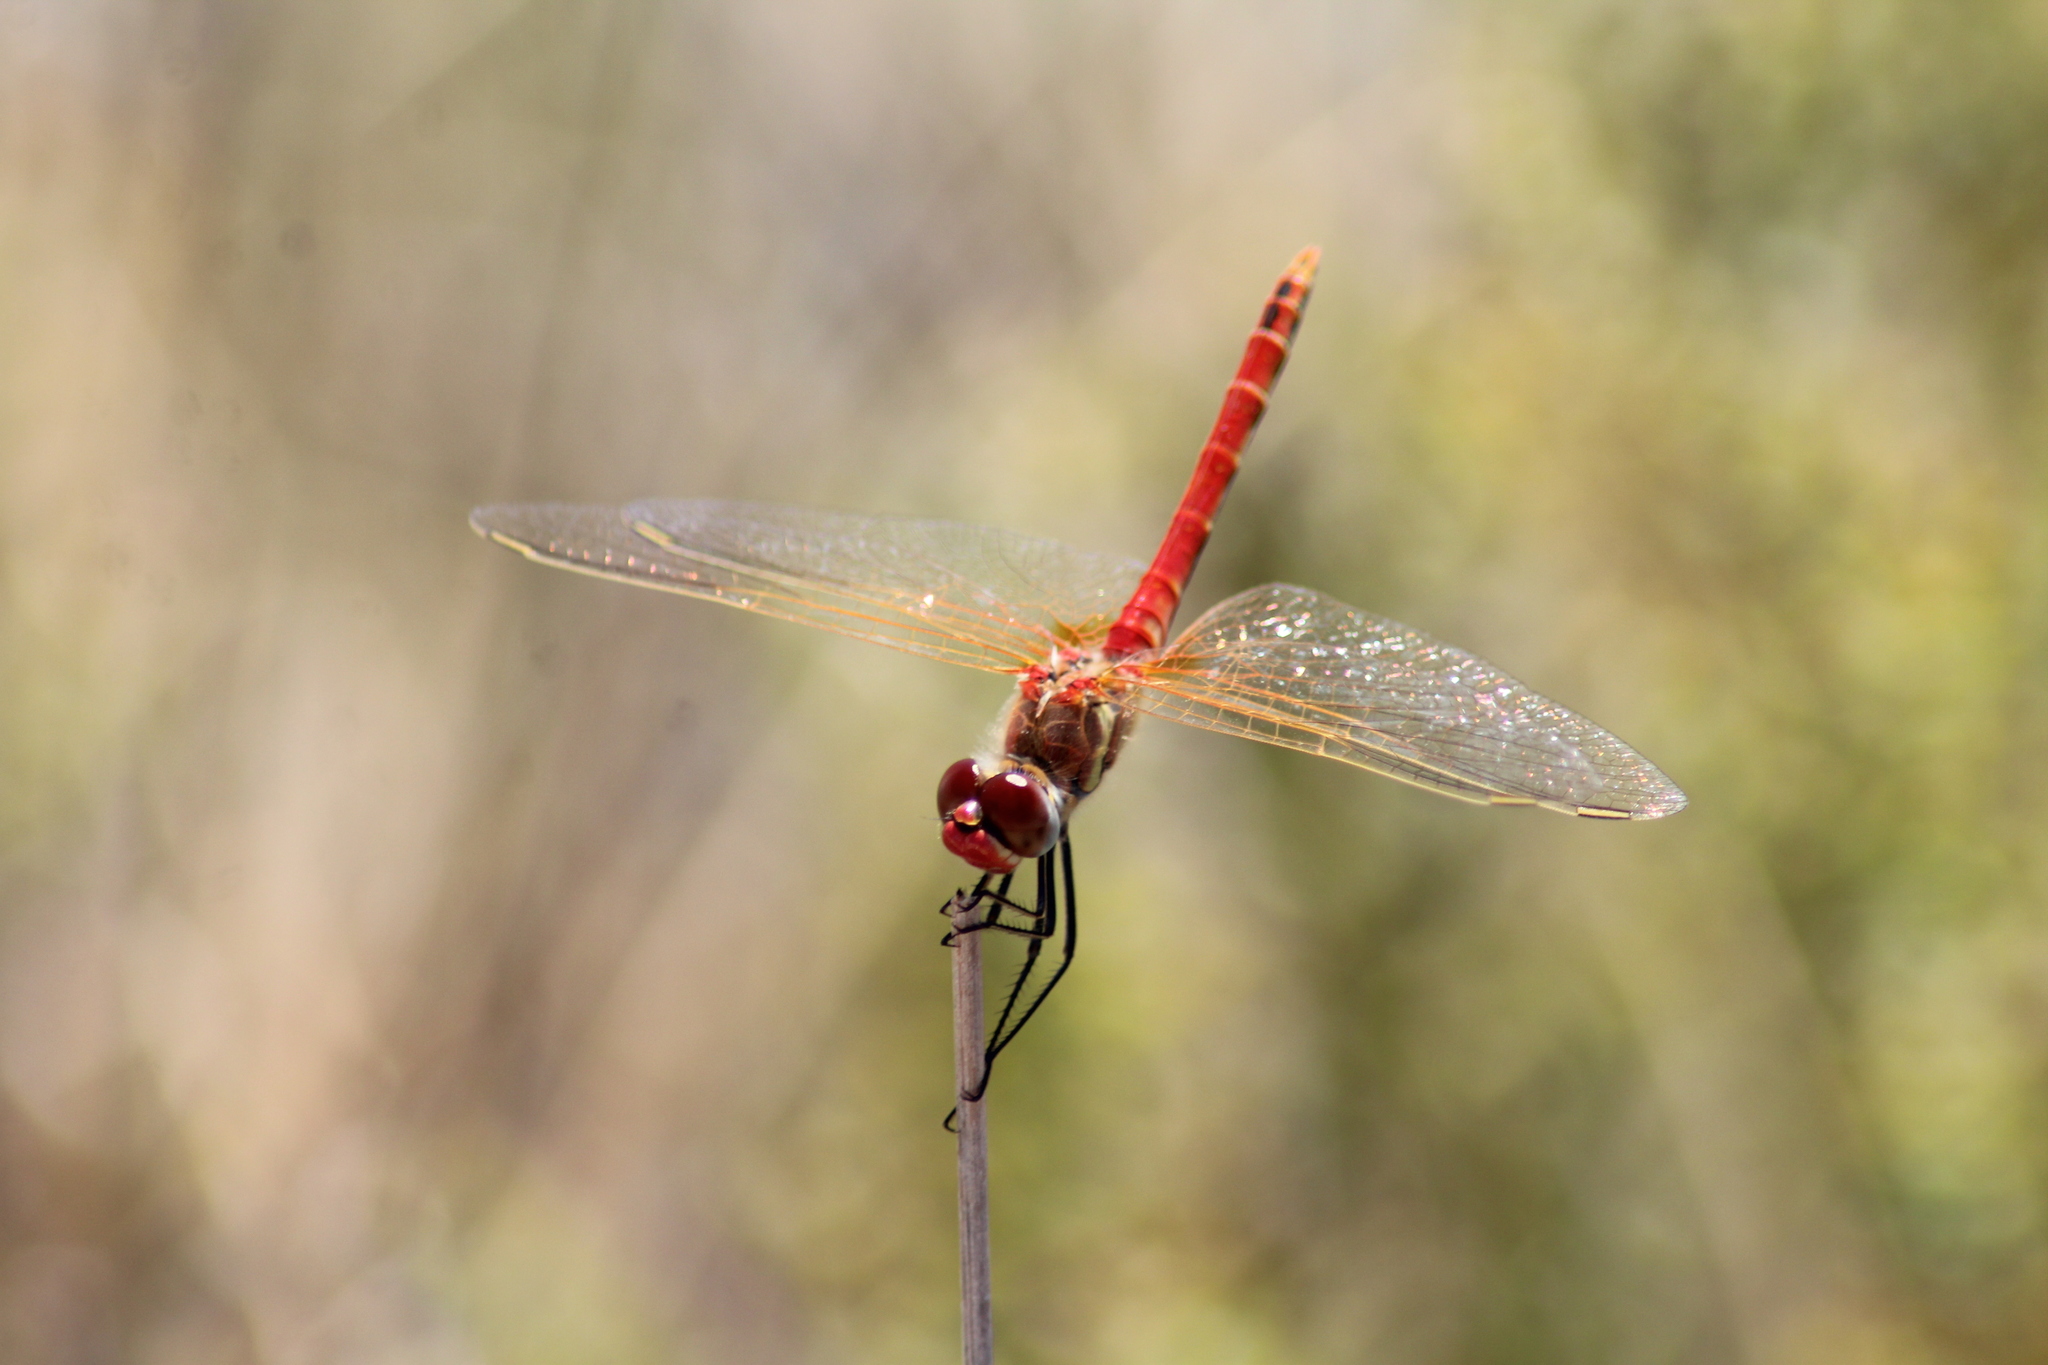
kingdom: Animalia
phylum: Arthropoda
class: Insecta
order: Odonata
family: Libellulidae
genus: Sympetrum
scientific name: Sympetrum fonscolombii
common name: Red-veined darter
